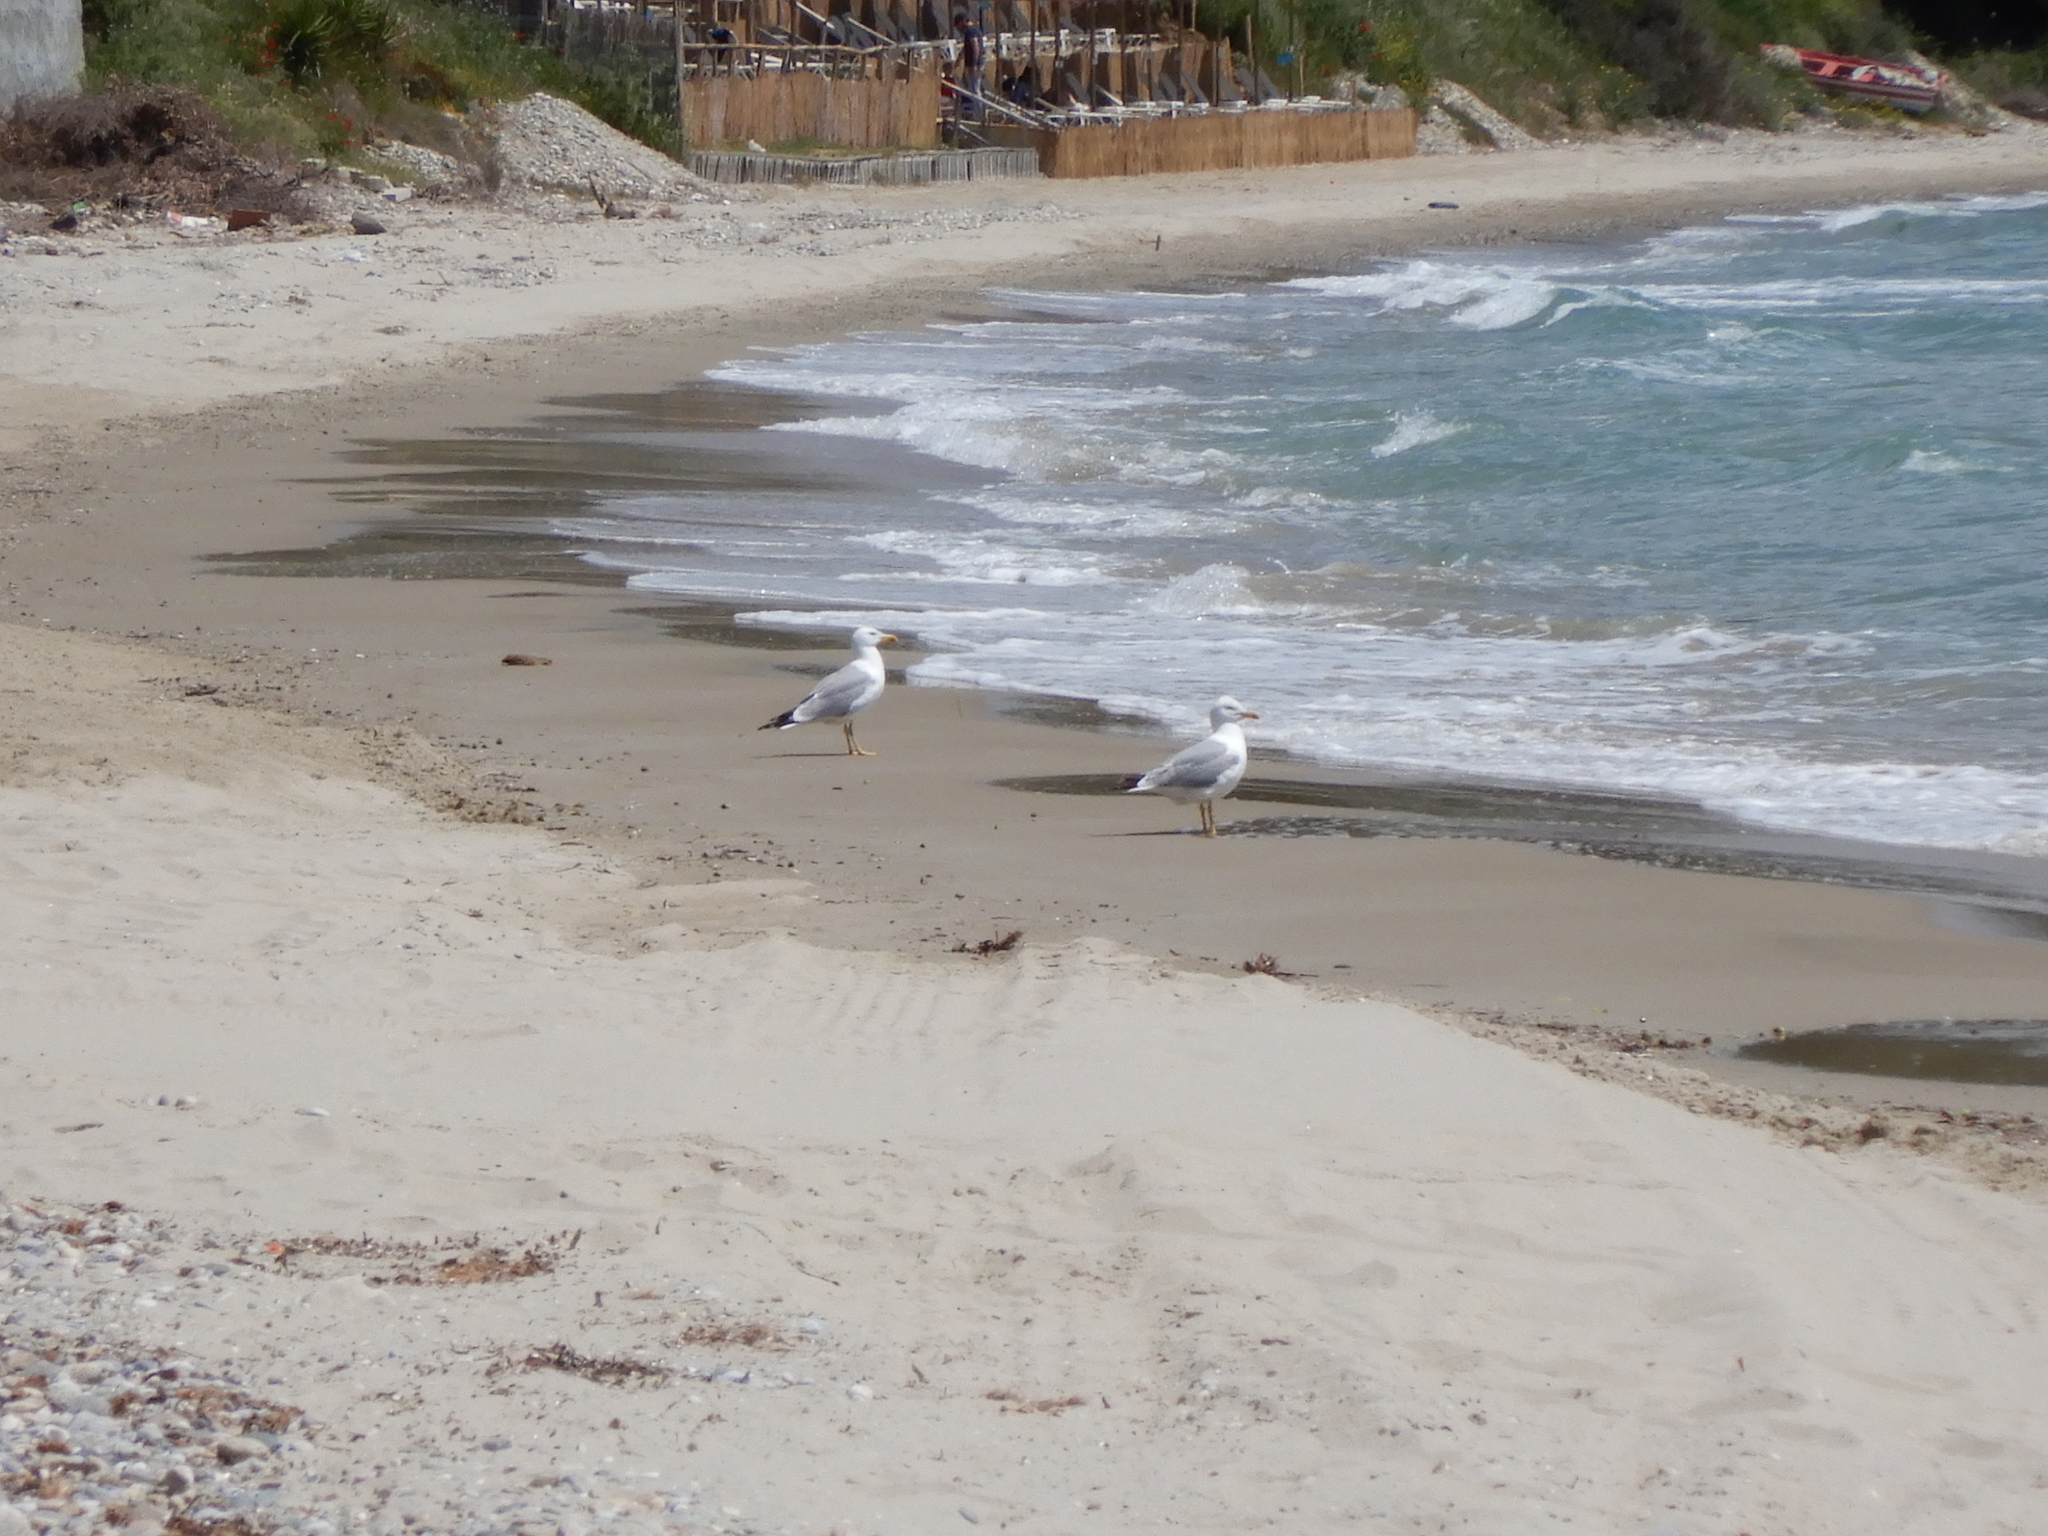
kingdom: Animalia
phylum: Chordata
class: Aves
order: Charadriiformes
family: Laridae
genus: Larus
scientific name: Larus michahellis
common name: Yellow-legged gull
